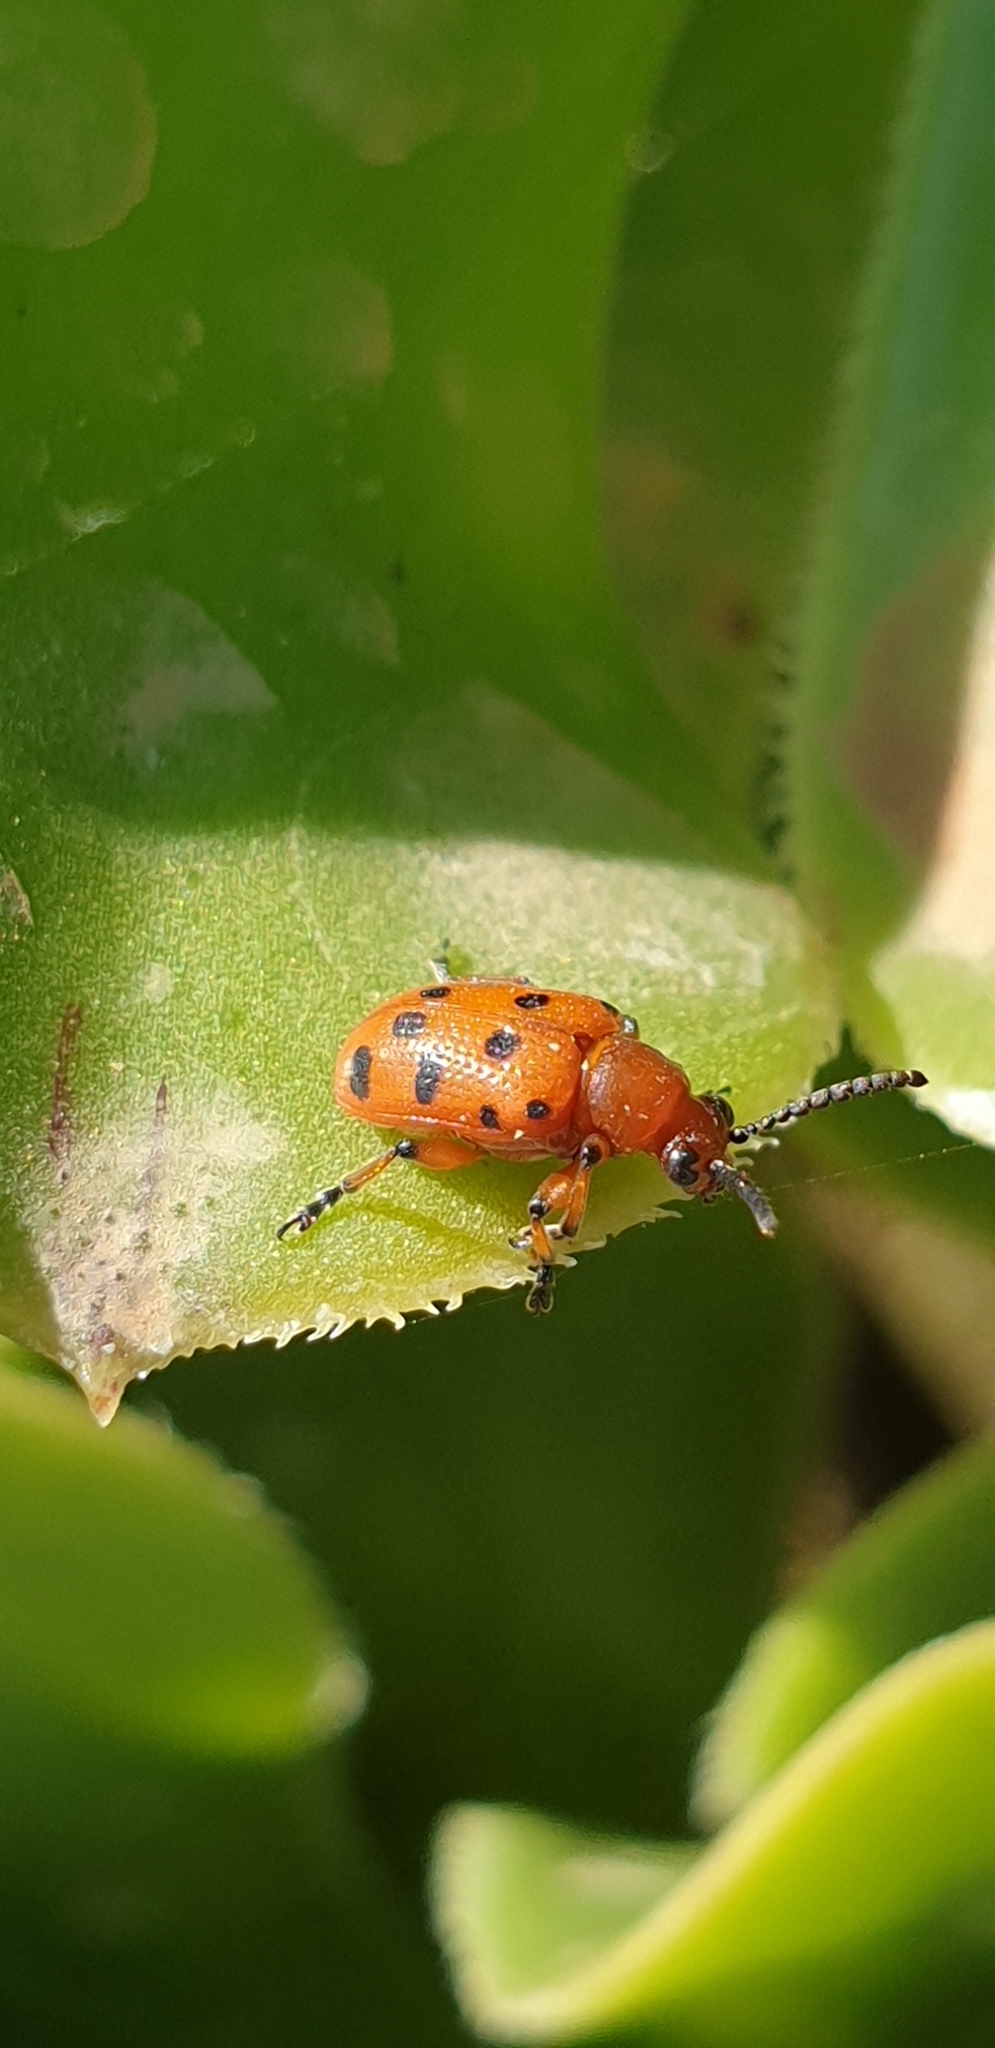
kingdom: Animalia
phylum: Arthropoda
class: Insecta
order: Coleoptera
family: Chrysomelidae
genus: Crioceris
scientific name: Crioceris duodecimpunctata
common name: Twelve-spotted asparagus beetle
